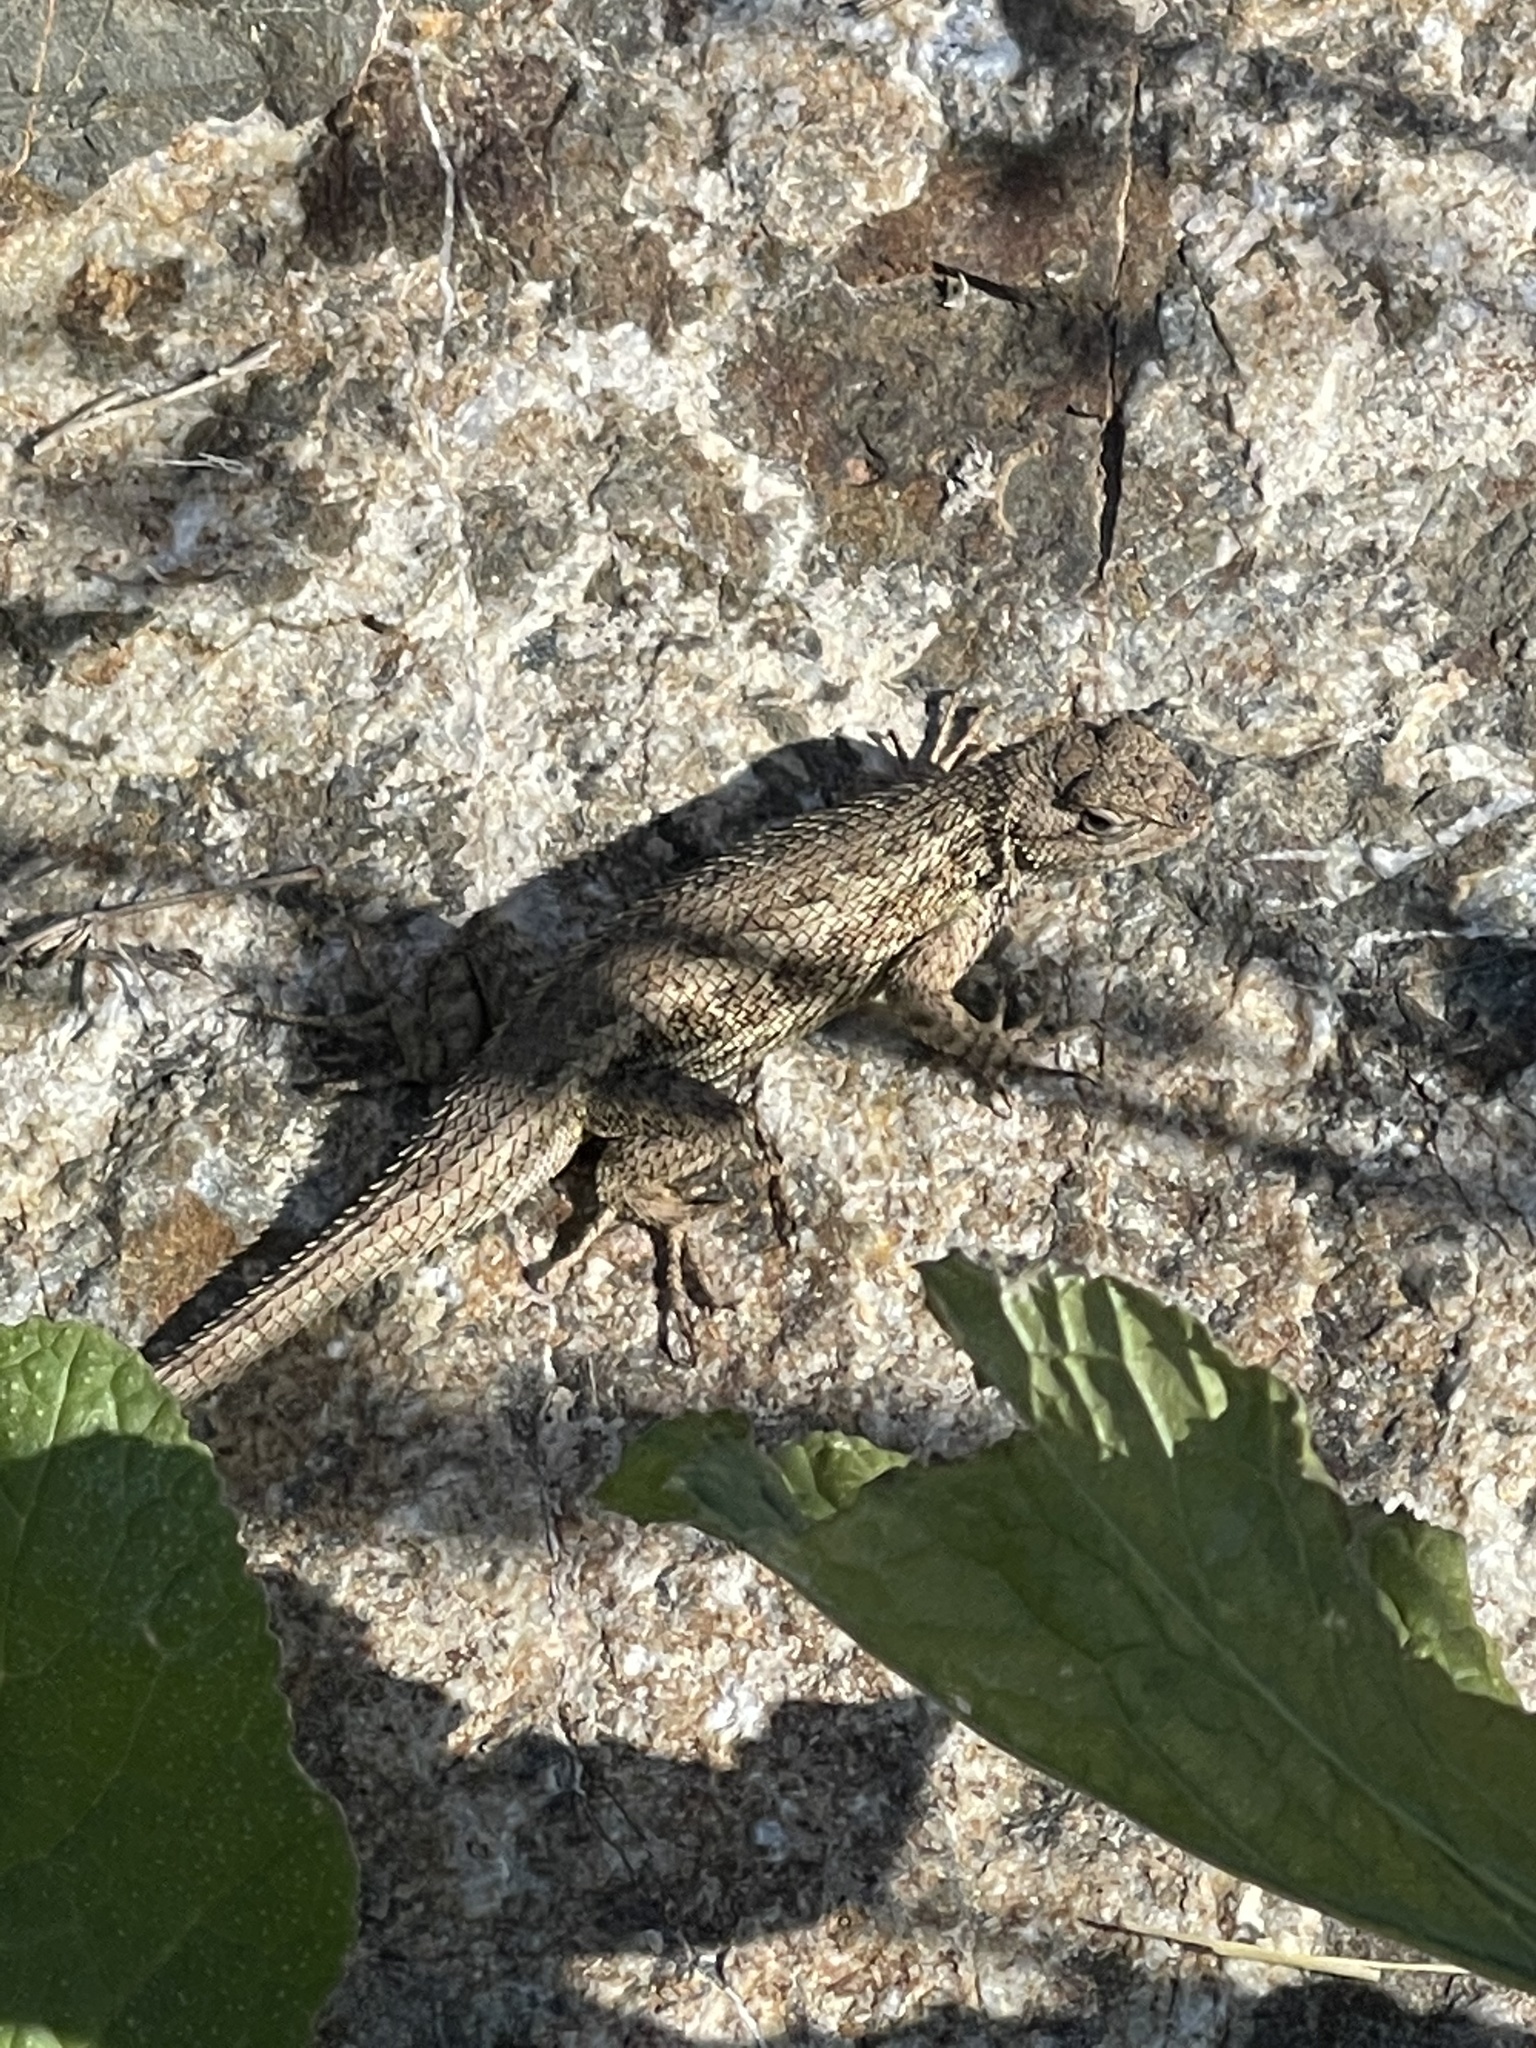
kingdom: Animalia
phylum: Chordata
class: Squamata
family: Phrynosomatidae
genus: Sceloporus
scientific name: Sceloporus occidentalis
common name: Western fence lizard
